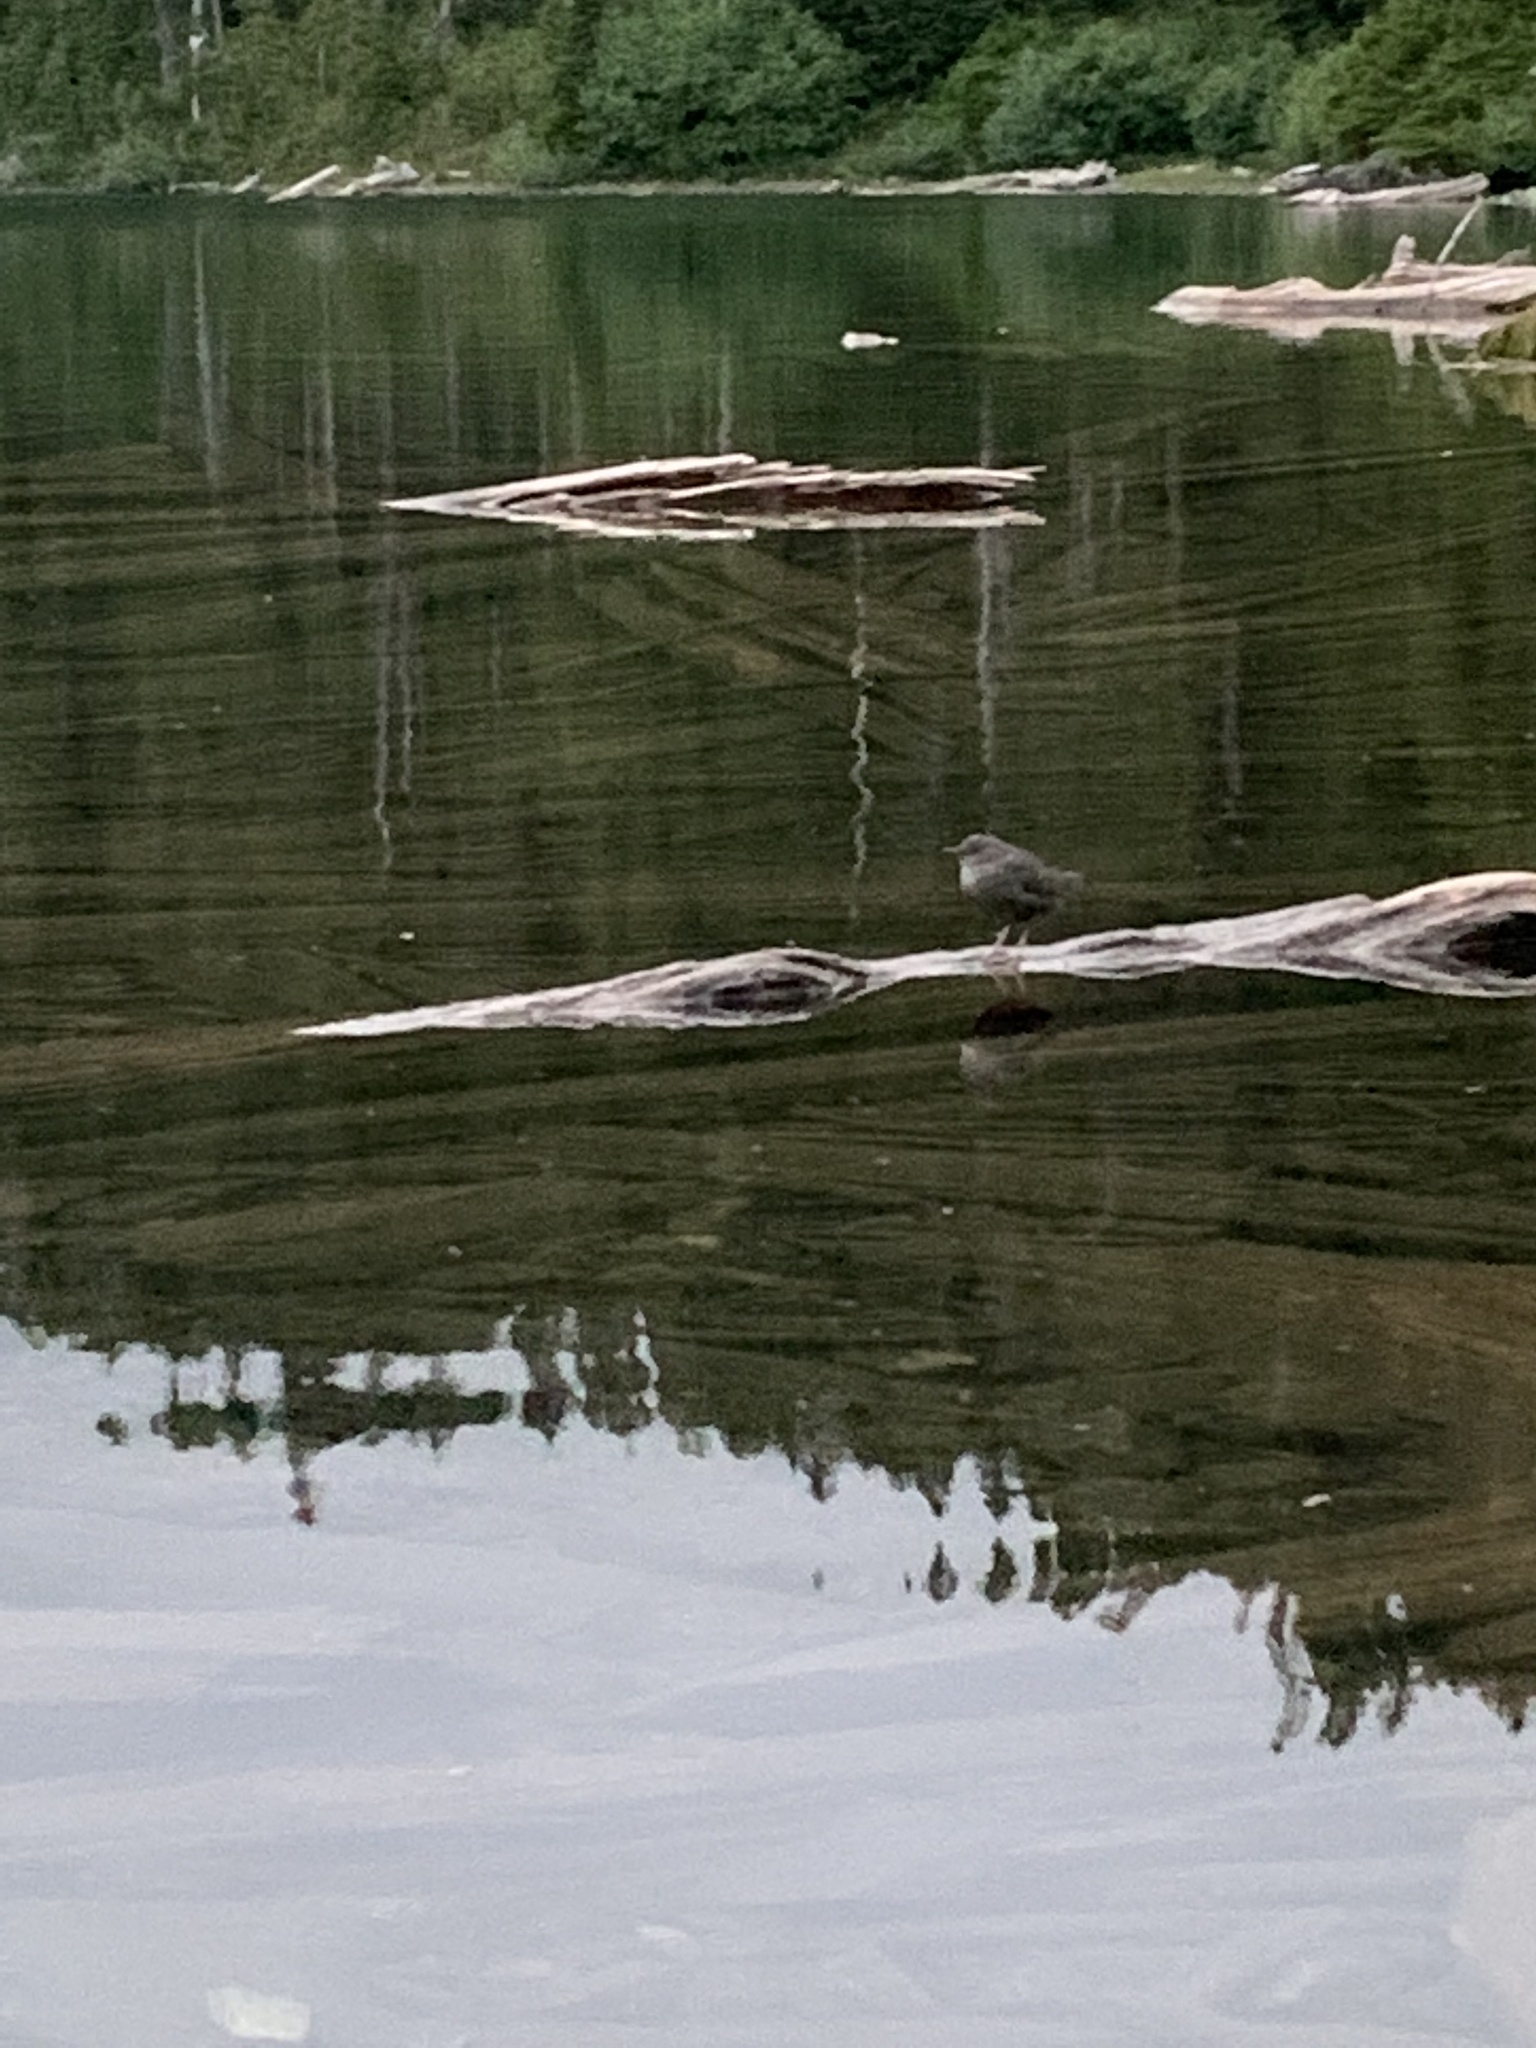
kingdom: Animalia
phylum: Chordata
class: Aves
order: Passeriformes
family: Cinclidae
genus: Cinclus
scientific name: Cinclus mexicanus
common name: American dipper
